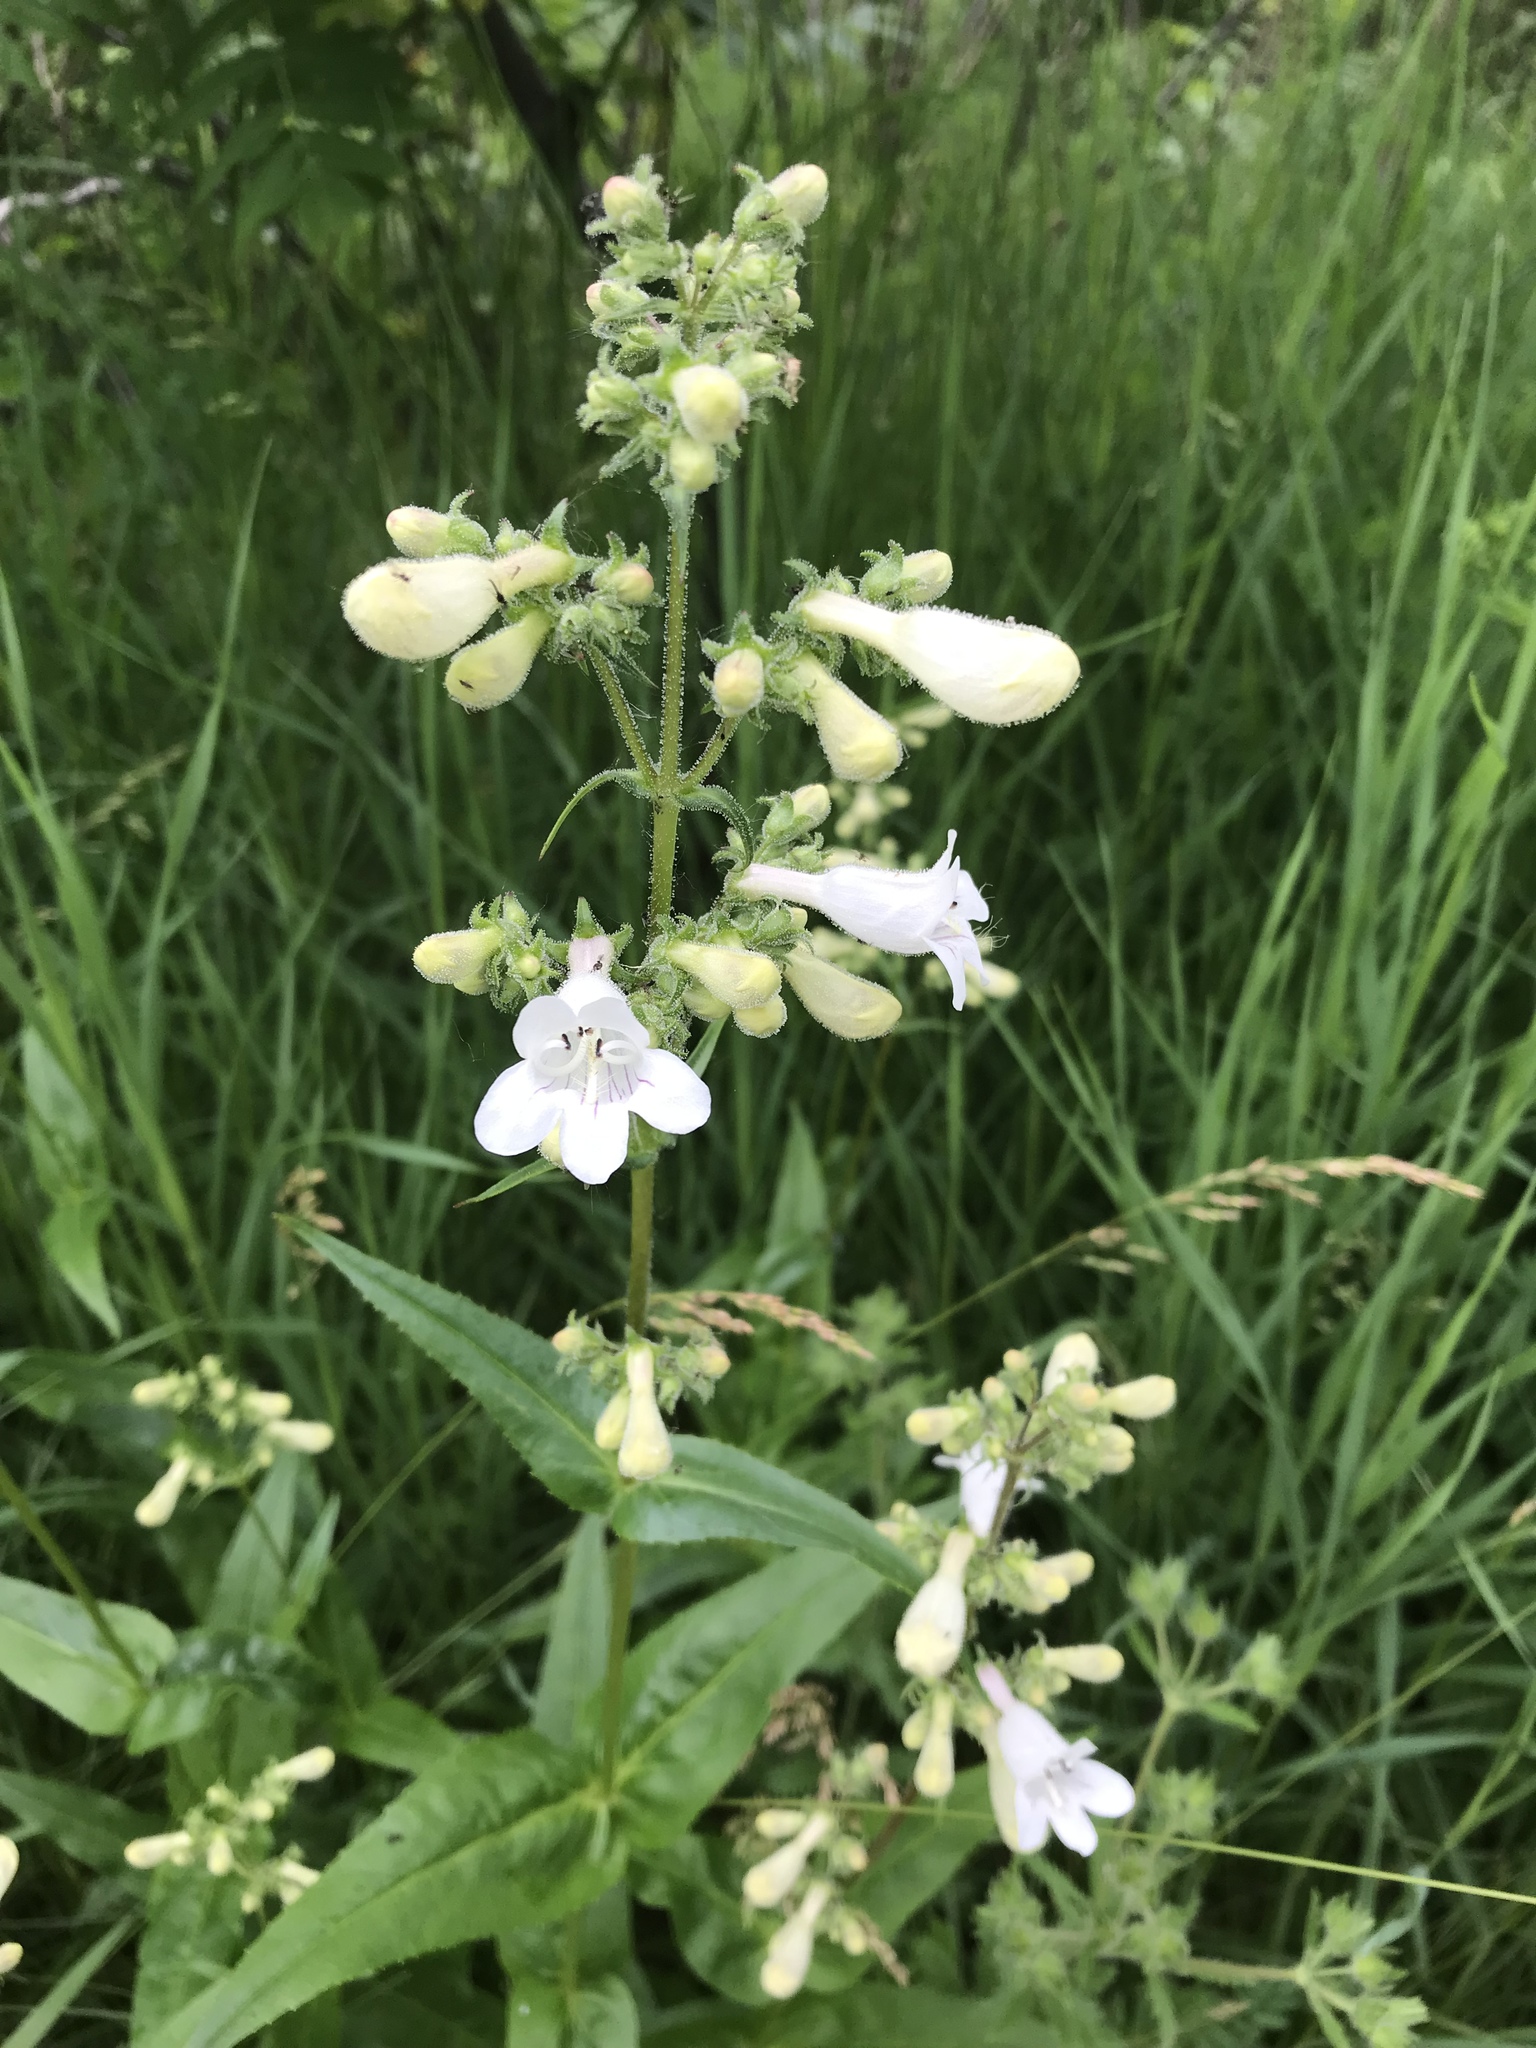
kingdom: Plantae
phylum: Tracheophyta
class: Magnoliopsida
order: Lamiales
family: Plantaginaceae
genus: Penstemon
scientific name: Penstemon digitalis
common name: Foxglove beardtongue
